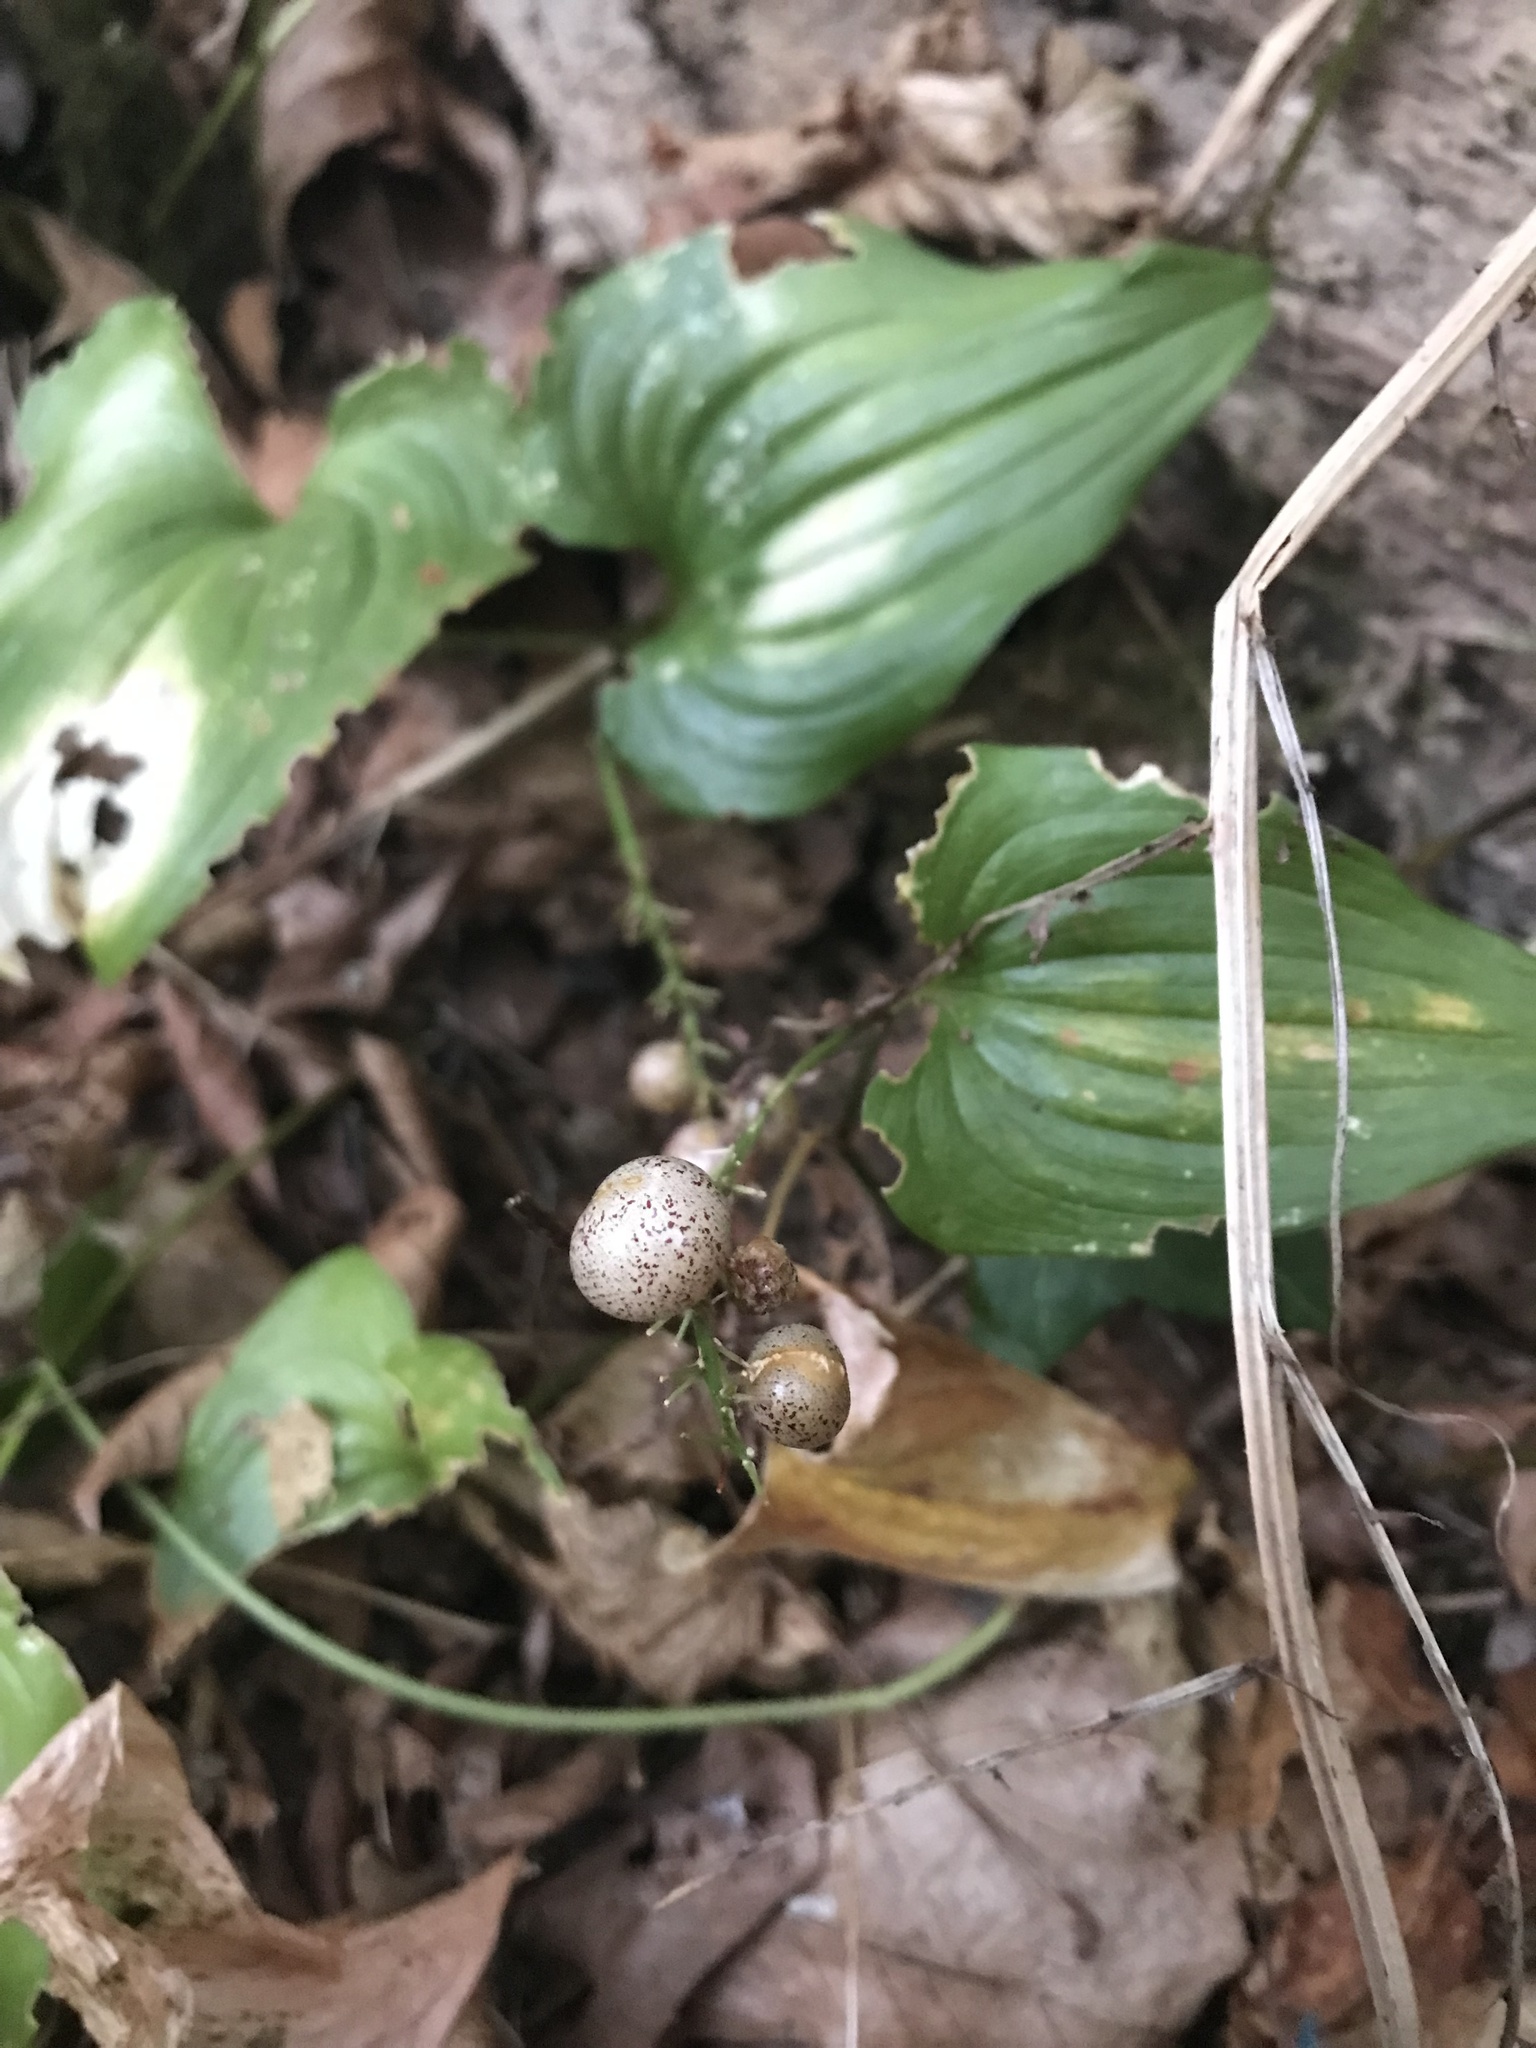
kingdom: Plantae
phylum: Tracheophyta
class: Liliopsida
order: Asparagales
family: Asparagaceae
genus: Maianthemum
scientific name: Maianthemum dilatatum
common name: False lily-of-the-valley
